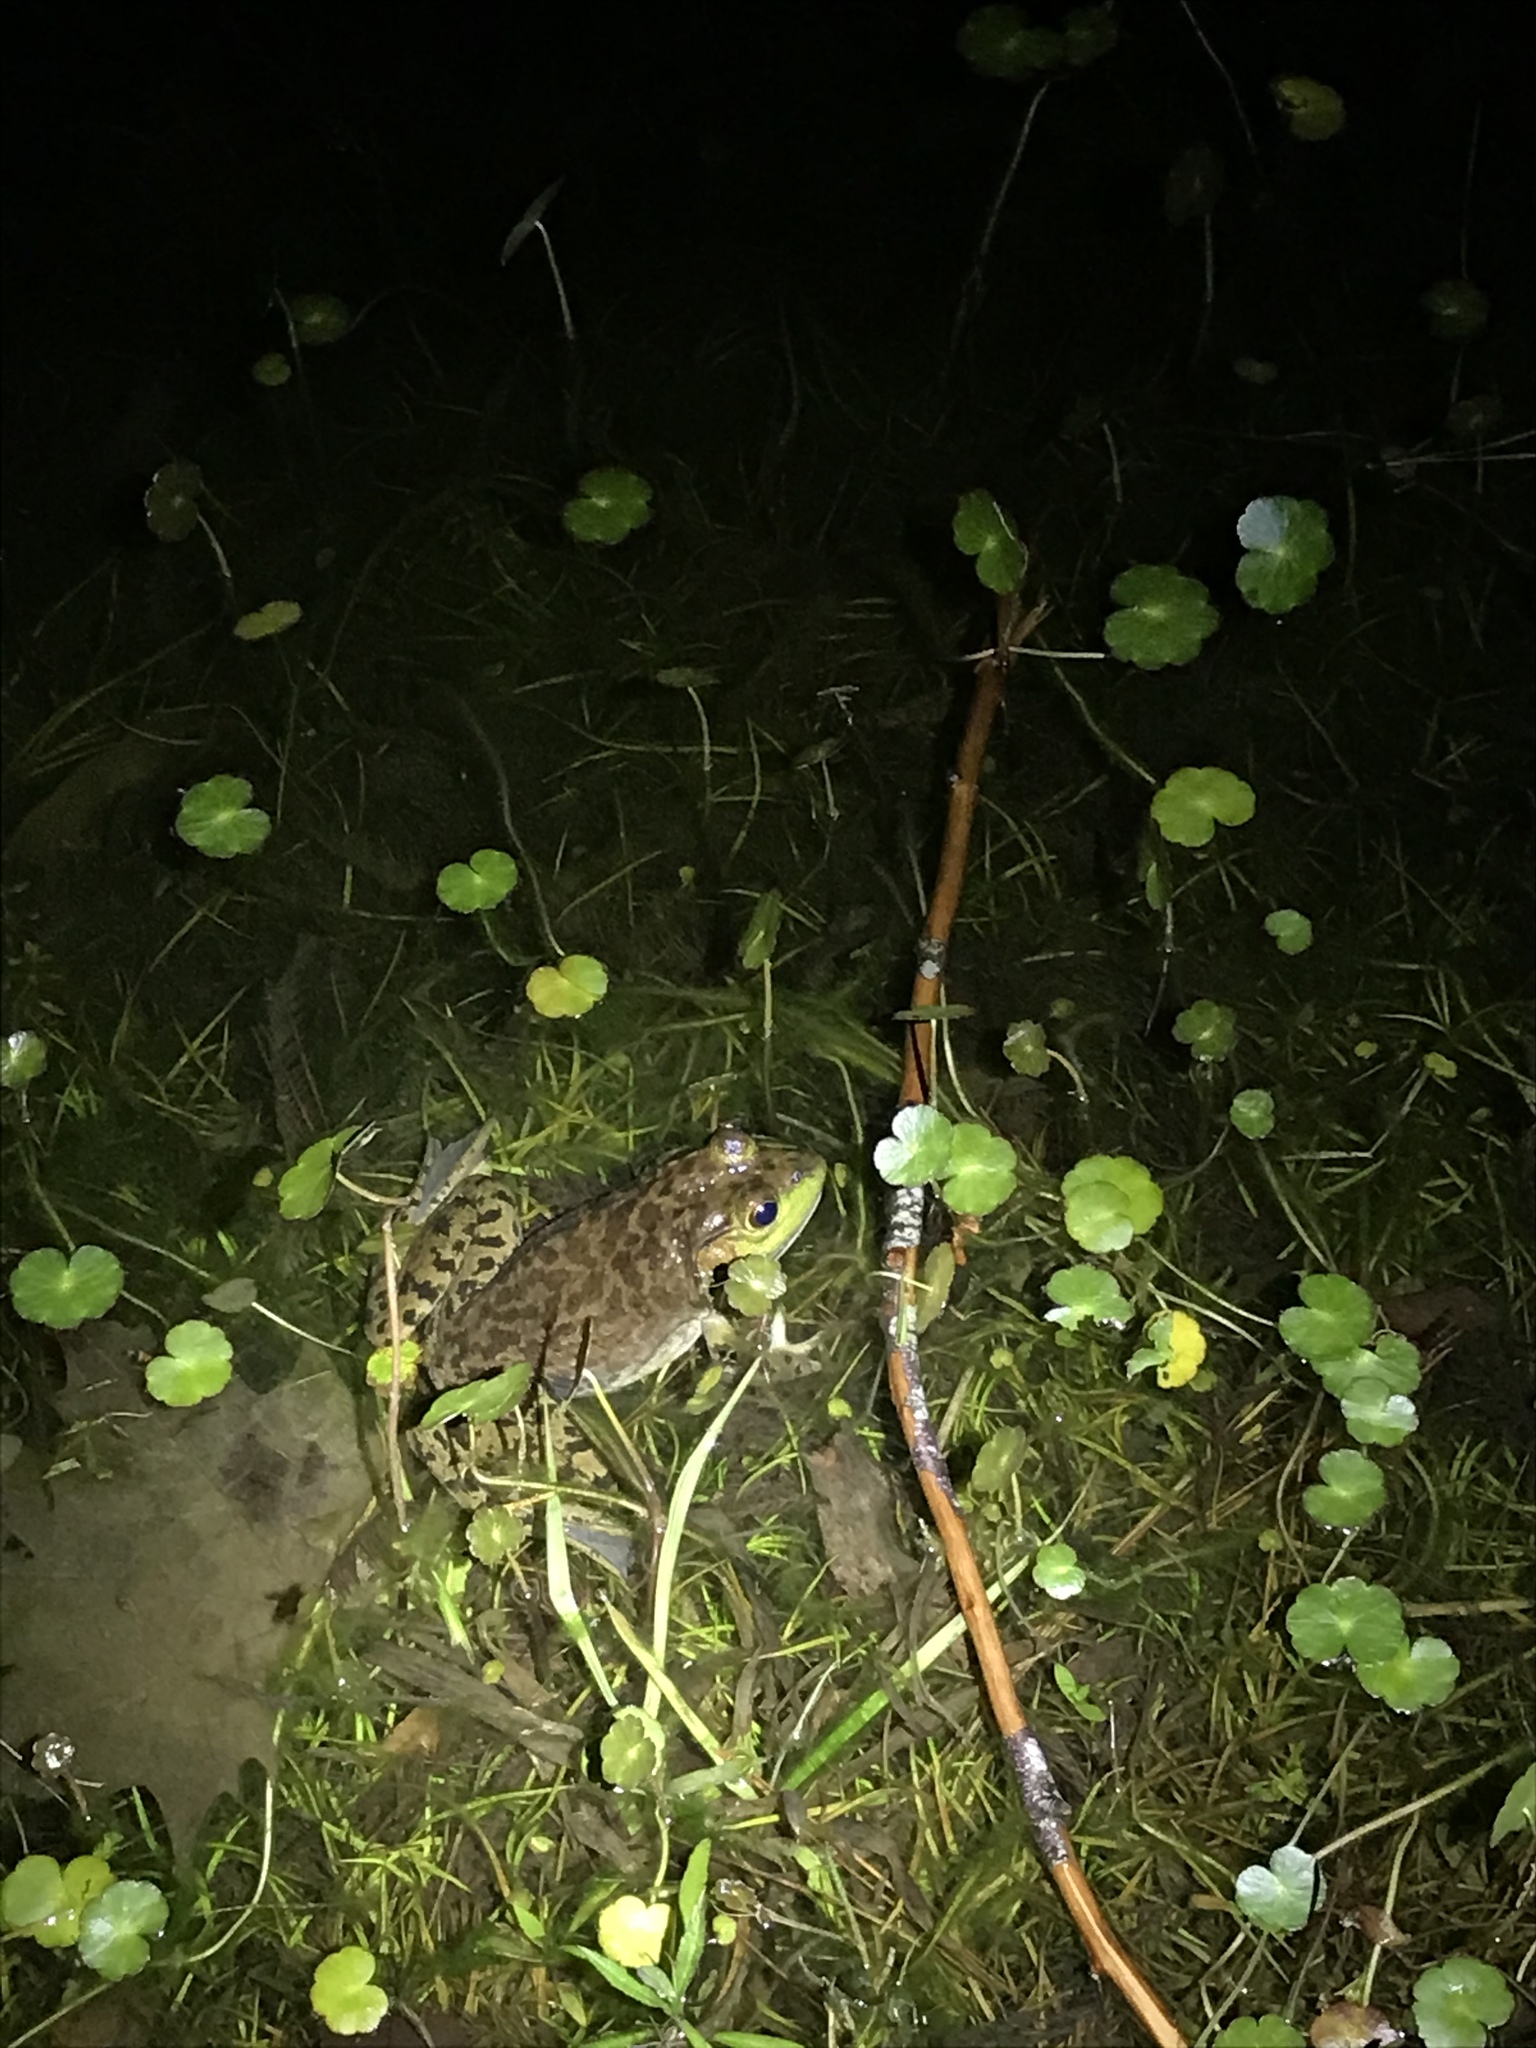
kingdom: Animalia
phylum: Chordata
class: Amphibia
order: Anura
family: Ranidae
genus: Lithobates
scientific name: Lithobates catesbeianus
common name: American bullfrog
